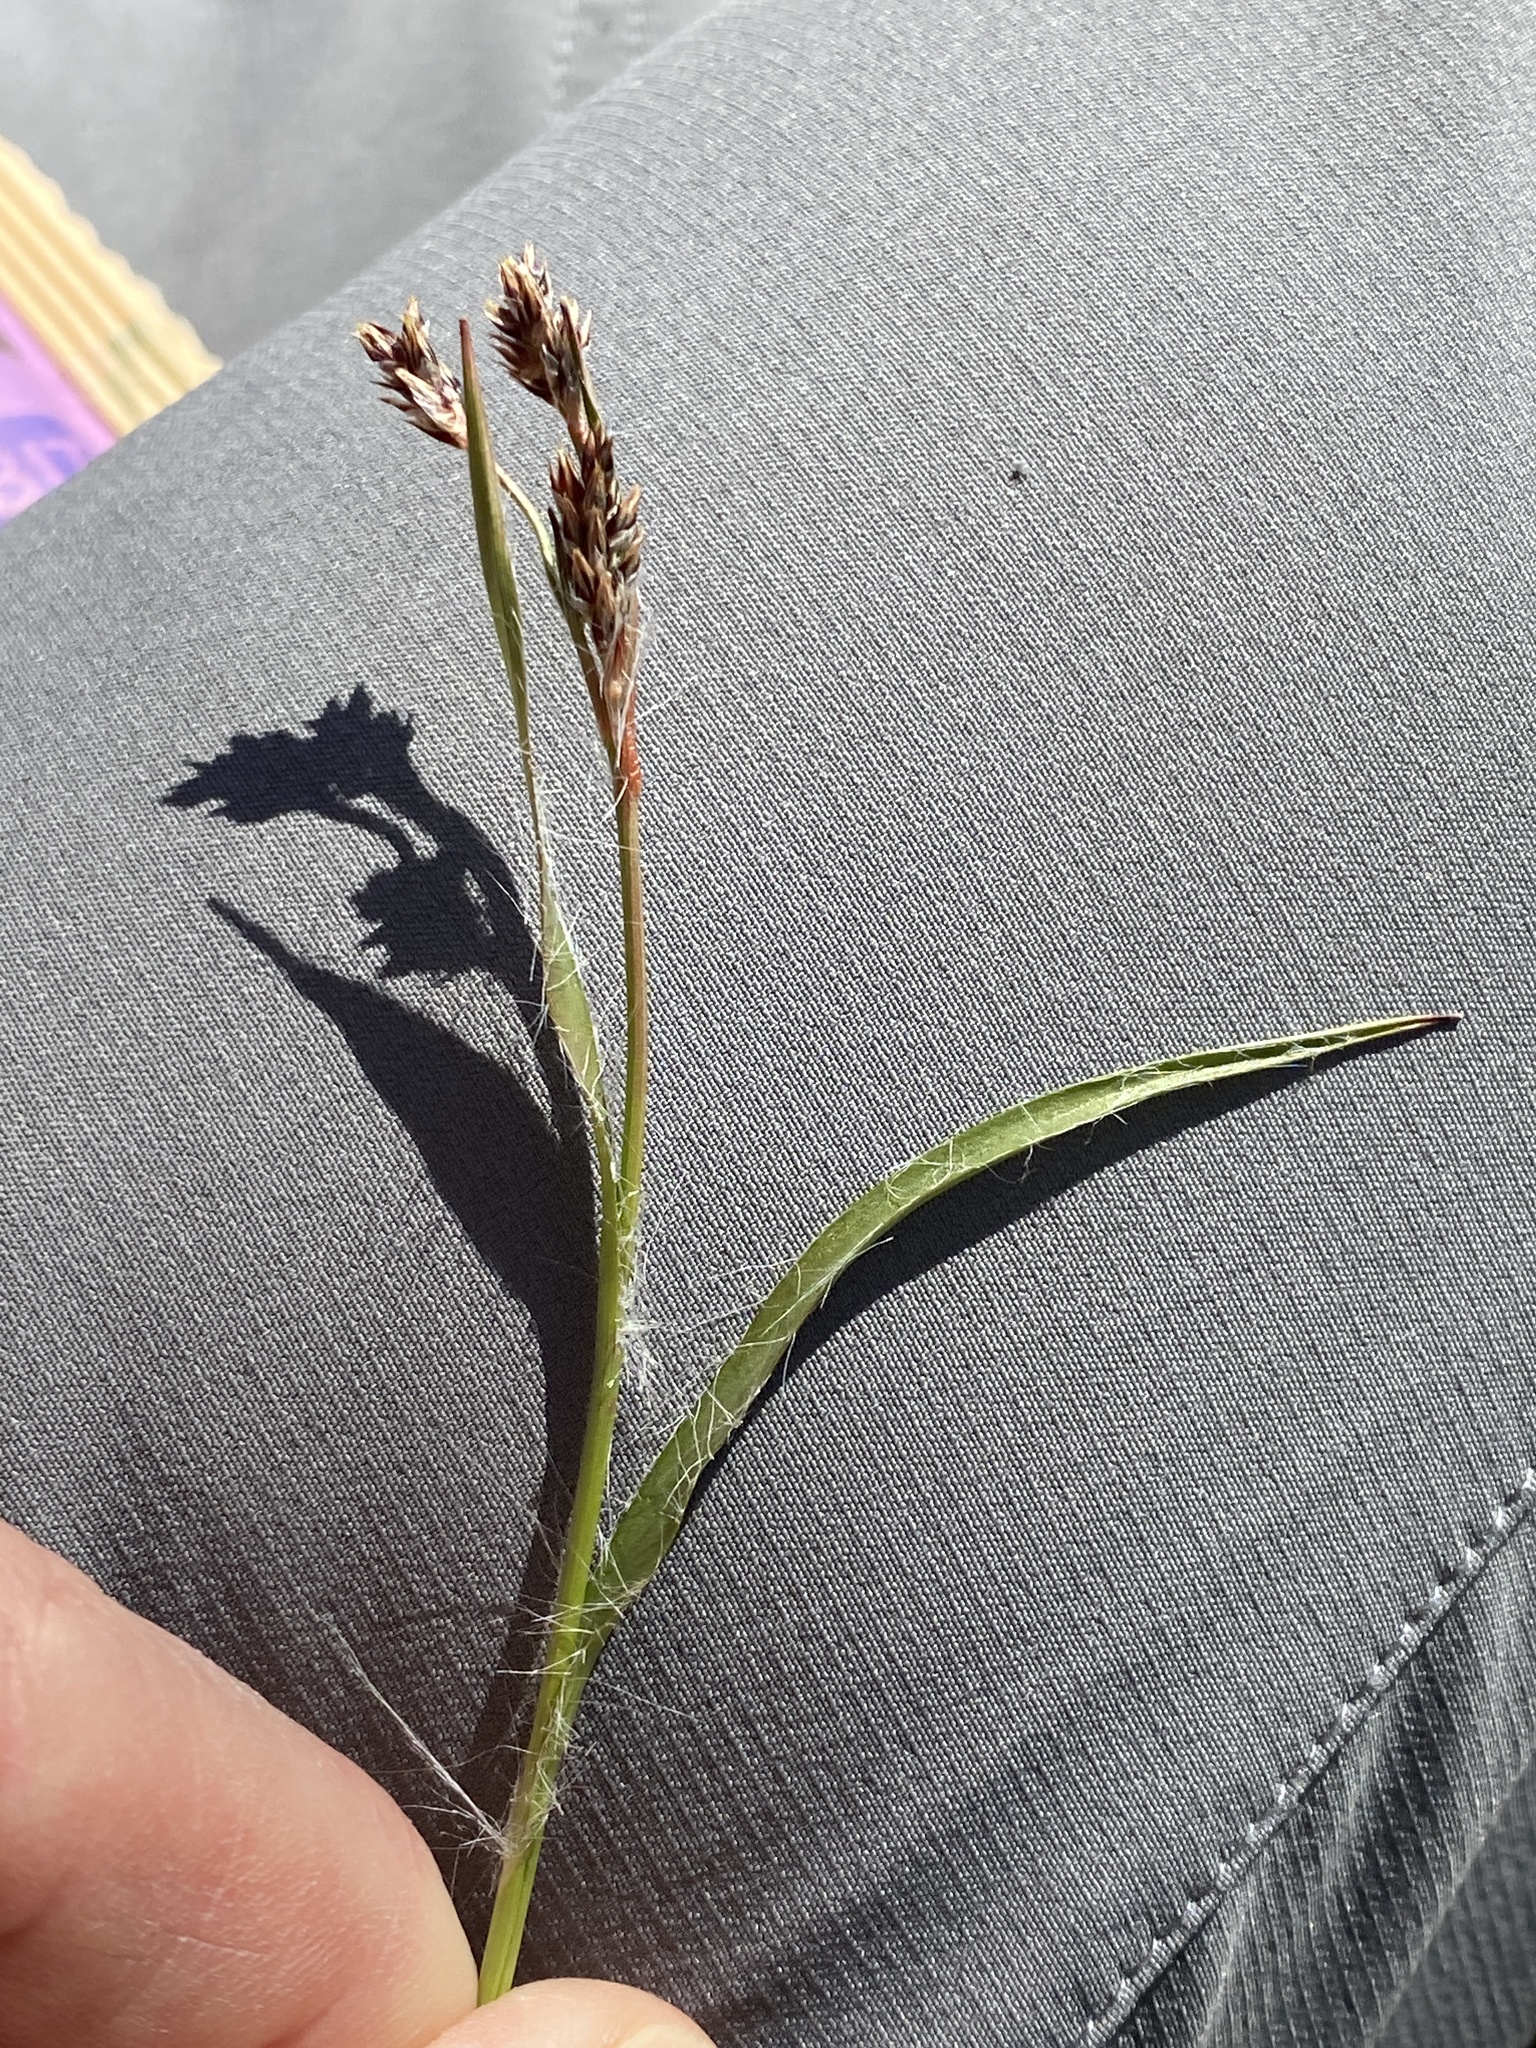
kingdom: Plantae
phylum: Tracheophyta
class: Liliopsida
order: Poales
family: Juncaceae
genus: Luzula
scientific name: Luzula campestris
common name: Field wood-rush
